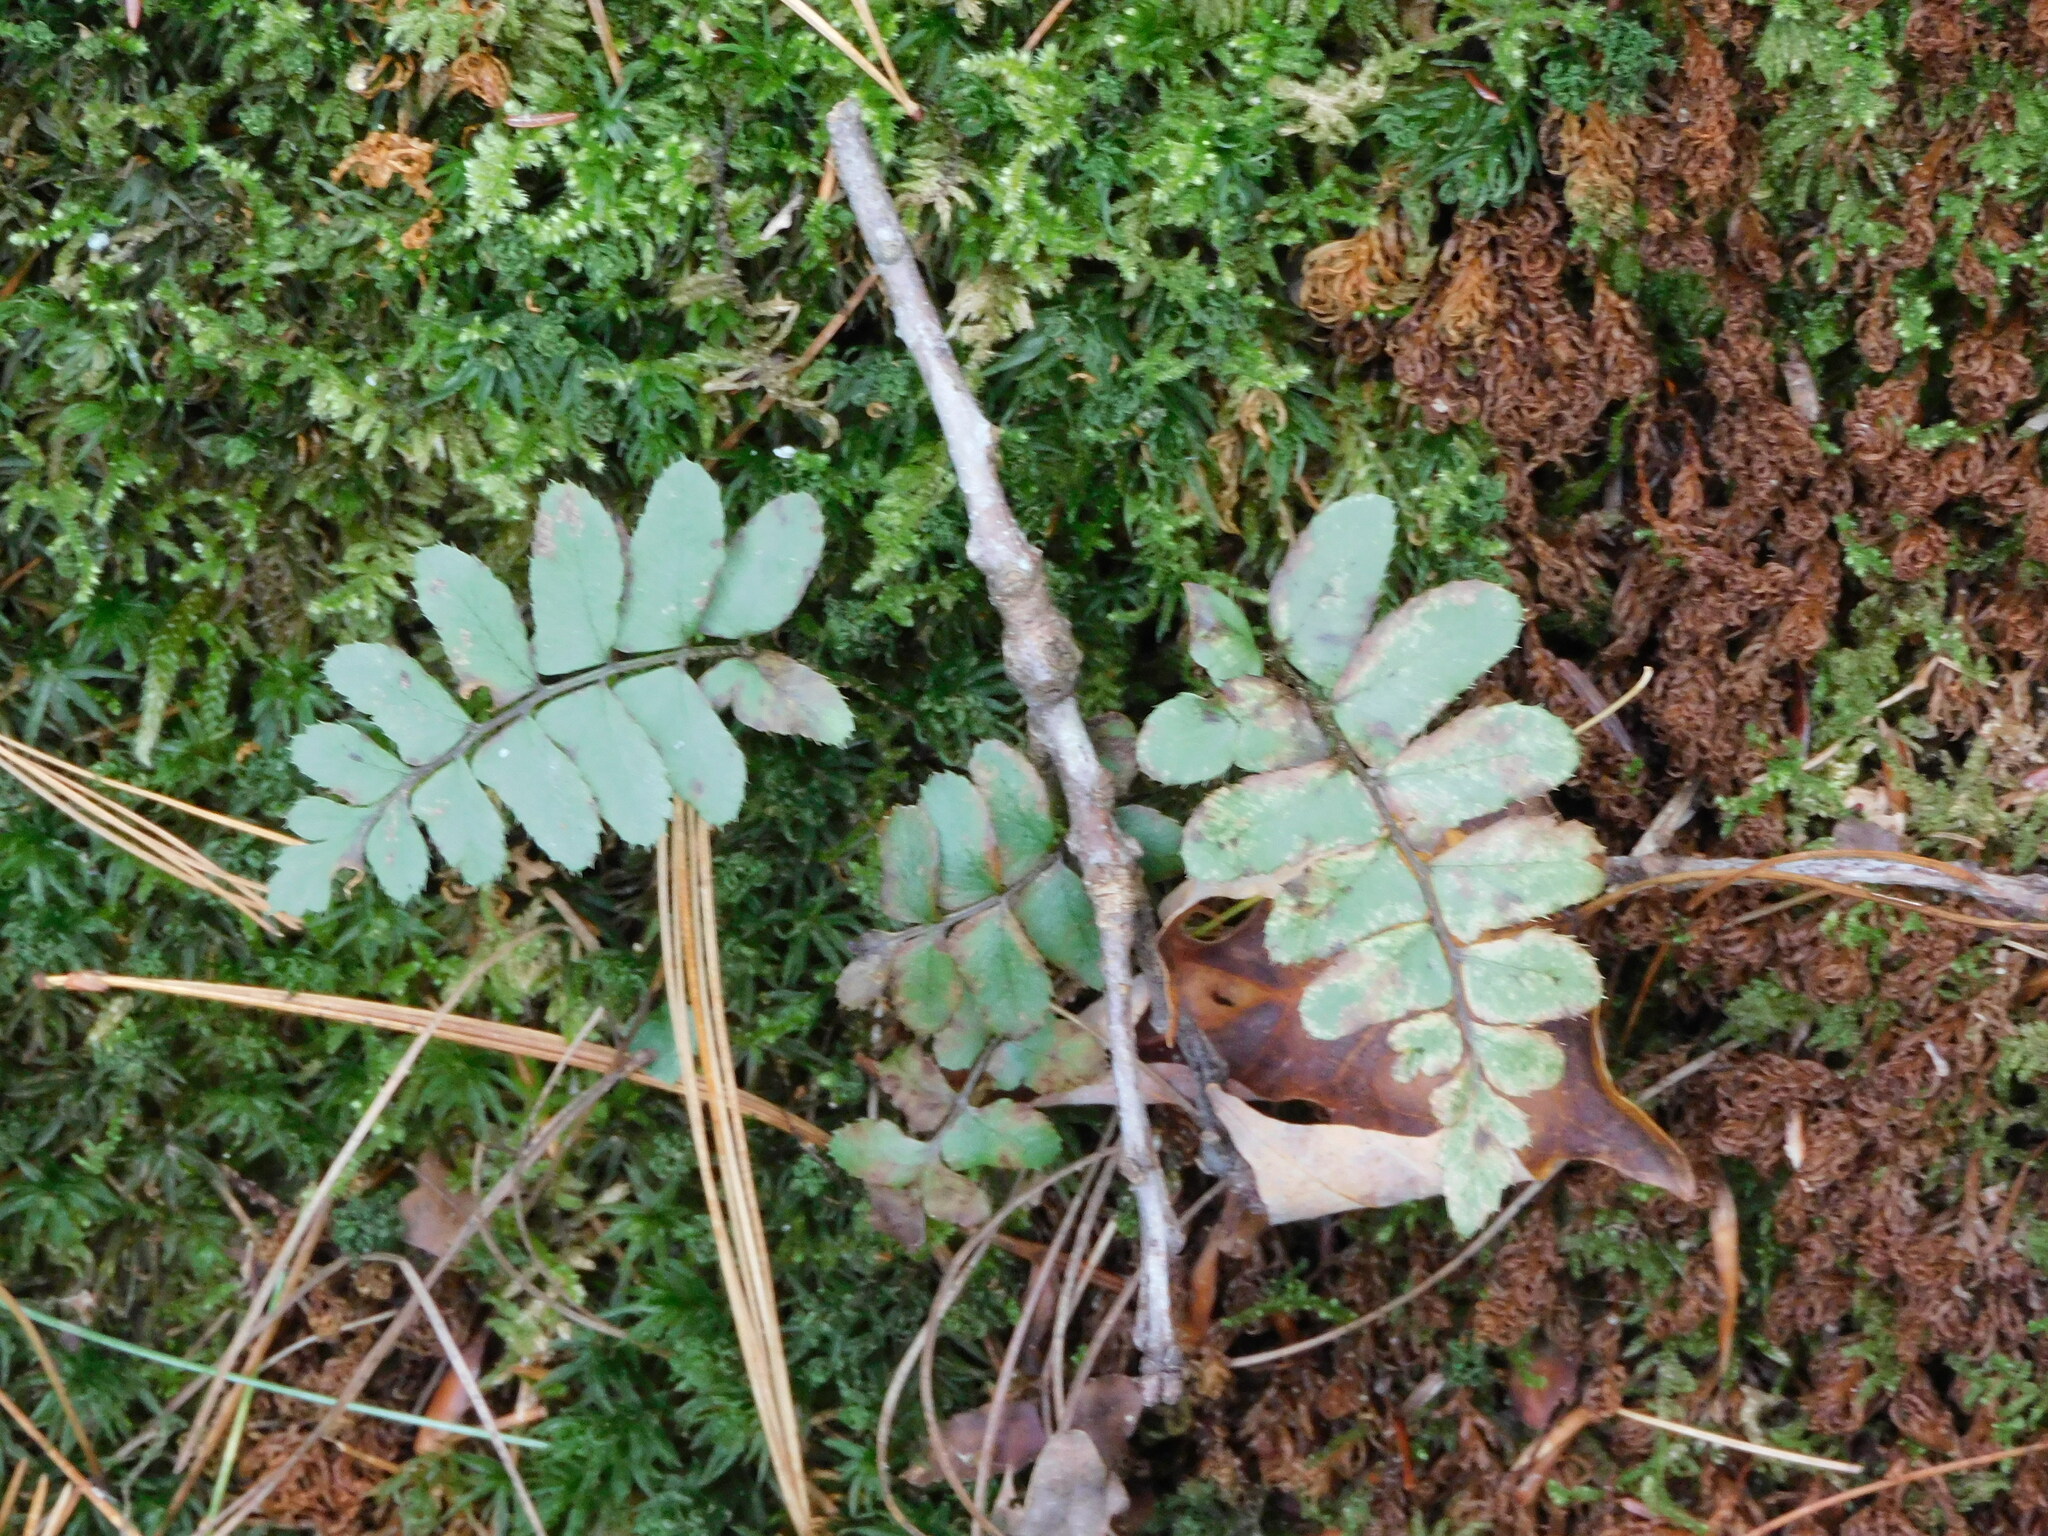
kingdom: Plantae
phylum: Tracheophyta
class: Polypodiopsida
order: Polypodiales
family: Dryopteridaceae
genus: Polystichum
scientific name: Polystichum acrostichoides
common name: Christmas fern
